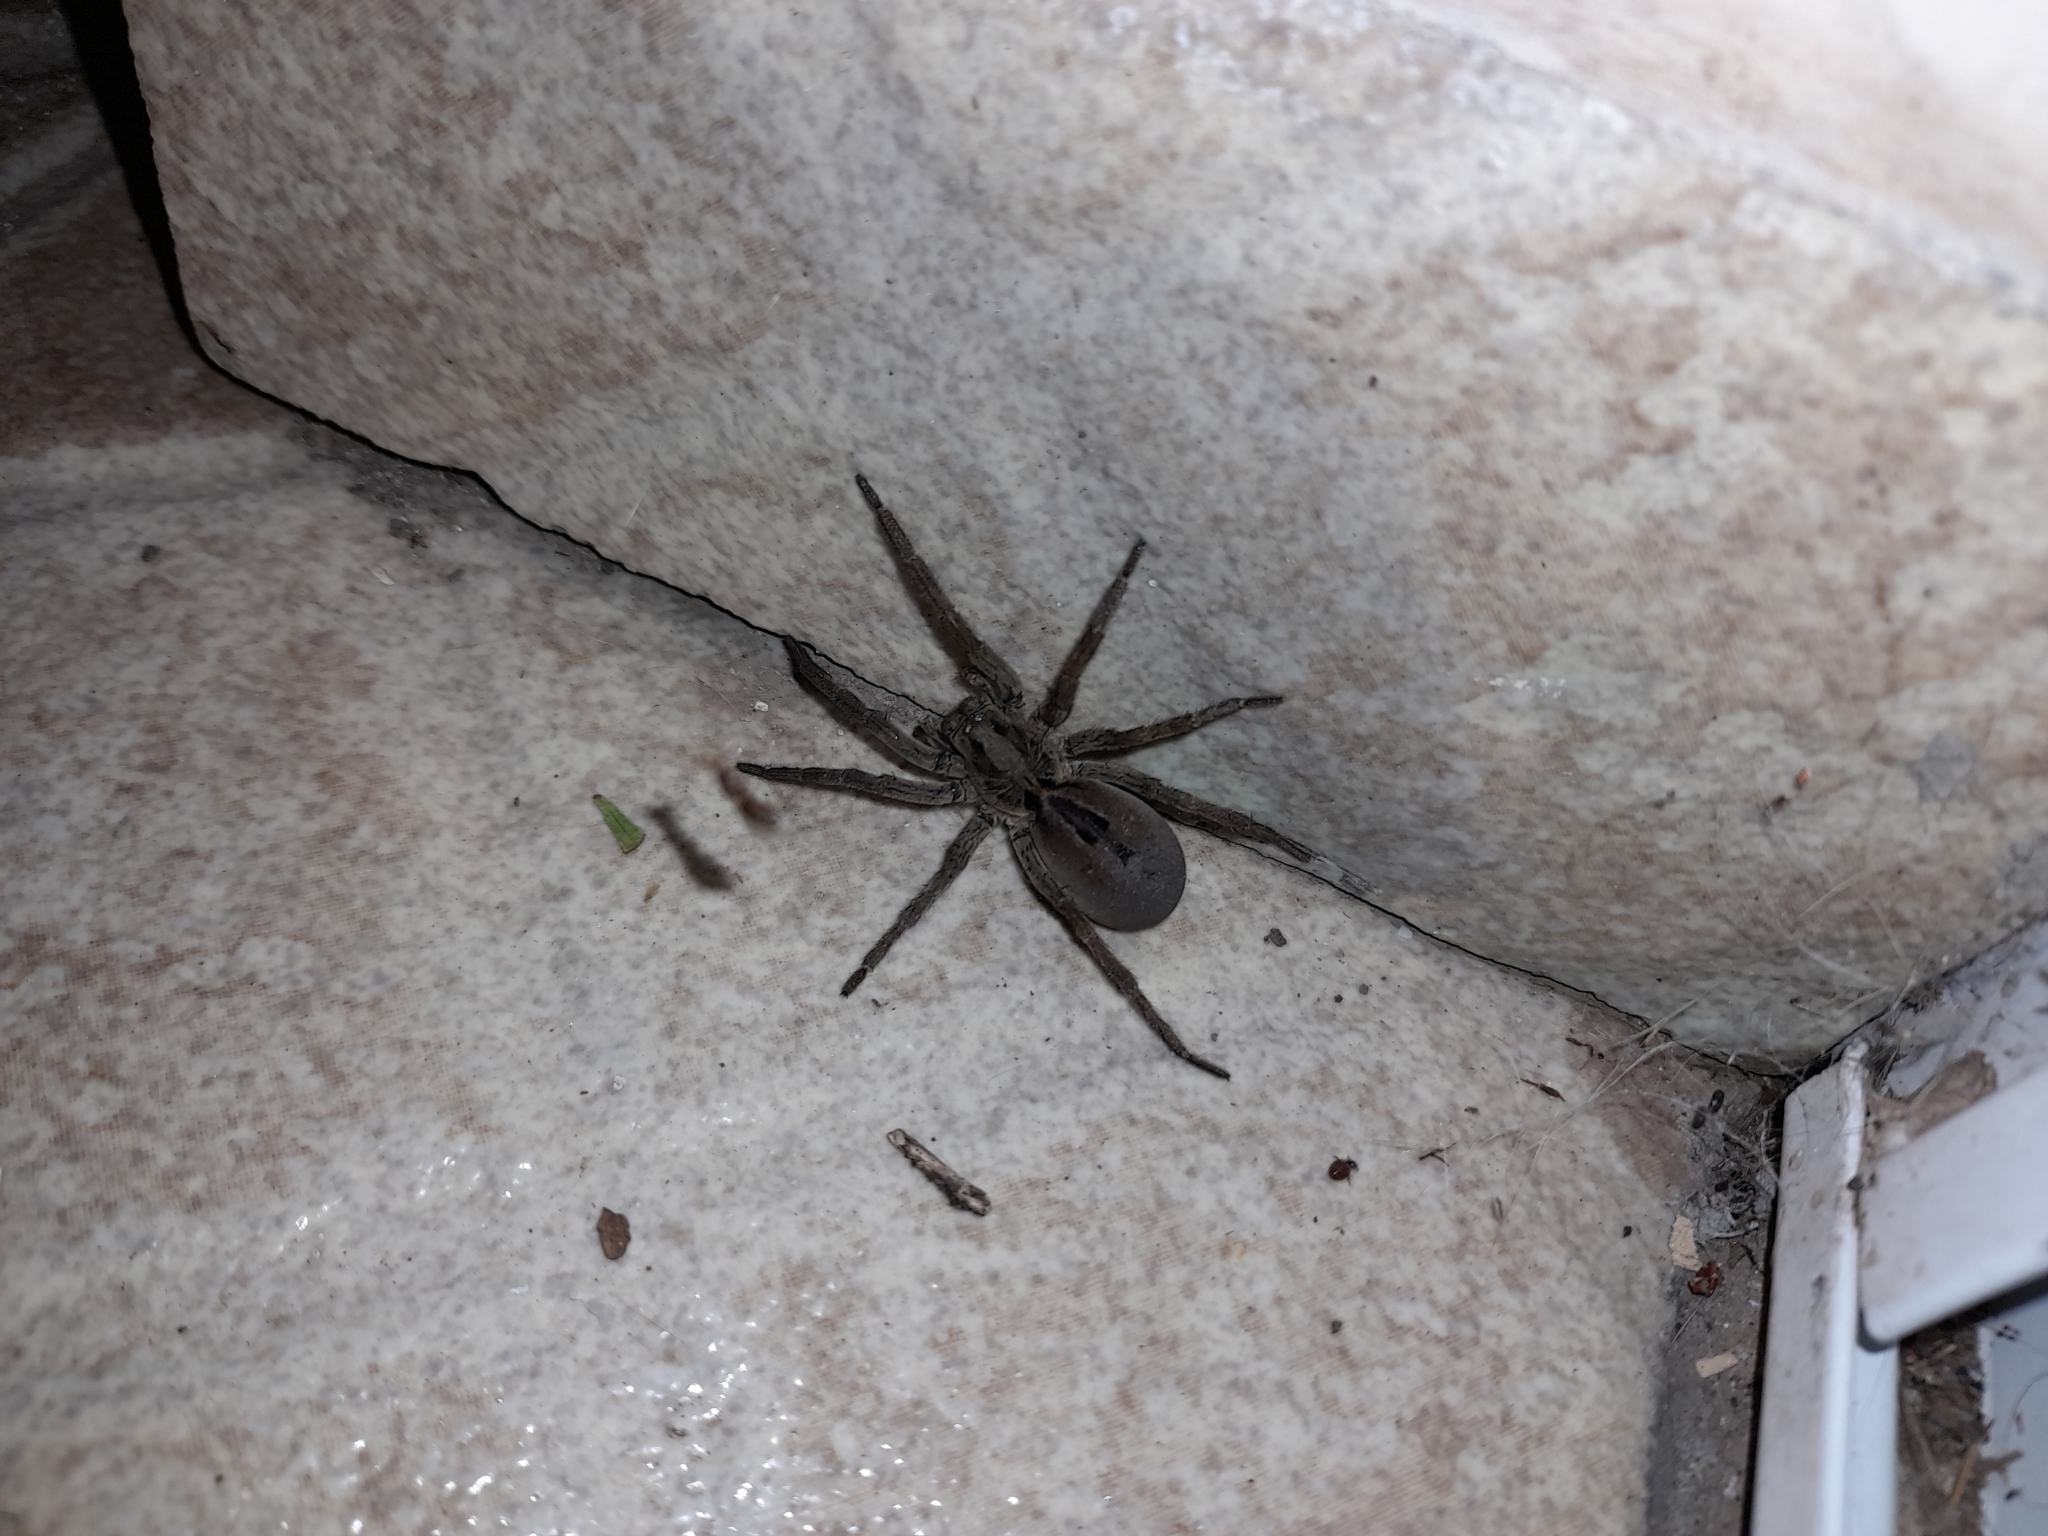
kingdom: Animalia
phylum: Arthropoda
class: Arachnida
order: Araneae
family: Lycosidae
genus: Lycosa
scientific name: Lycosa erythrognatha
